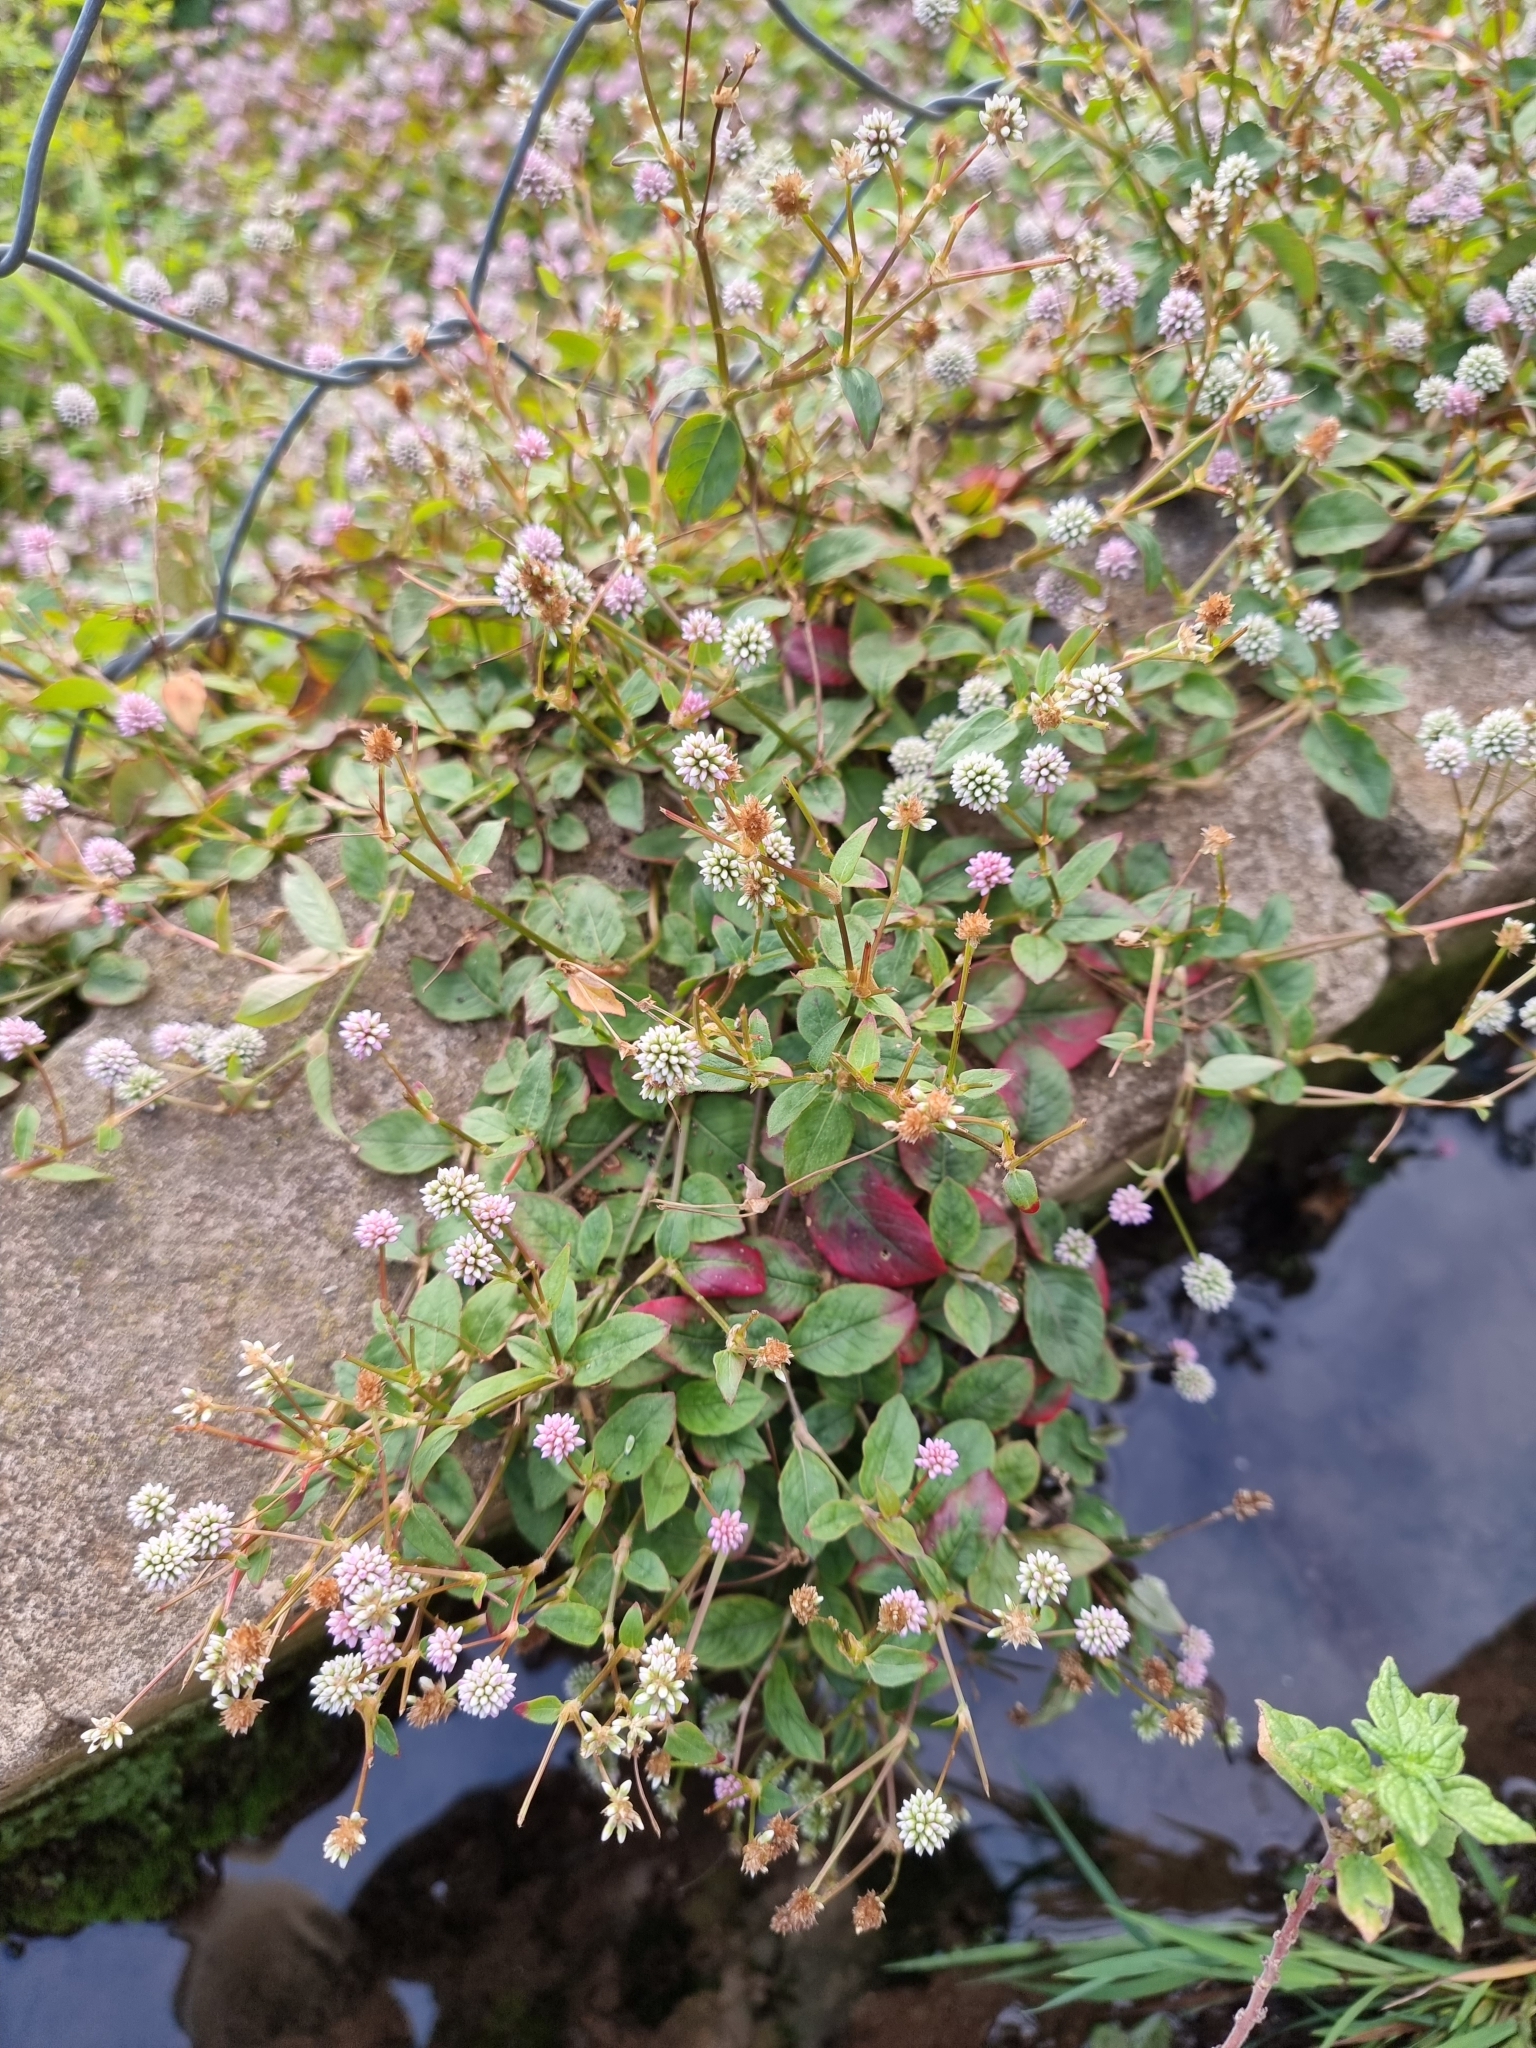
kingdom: Plantae
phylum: Tracheophyta
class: Magnoliopsida
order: Caryophyllales
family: Polygonaceae
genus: Persicaria
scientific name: Persicaria capitata
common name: Pinkhead smartweed
